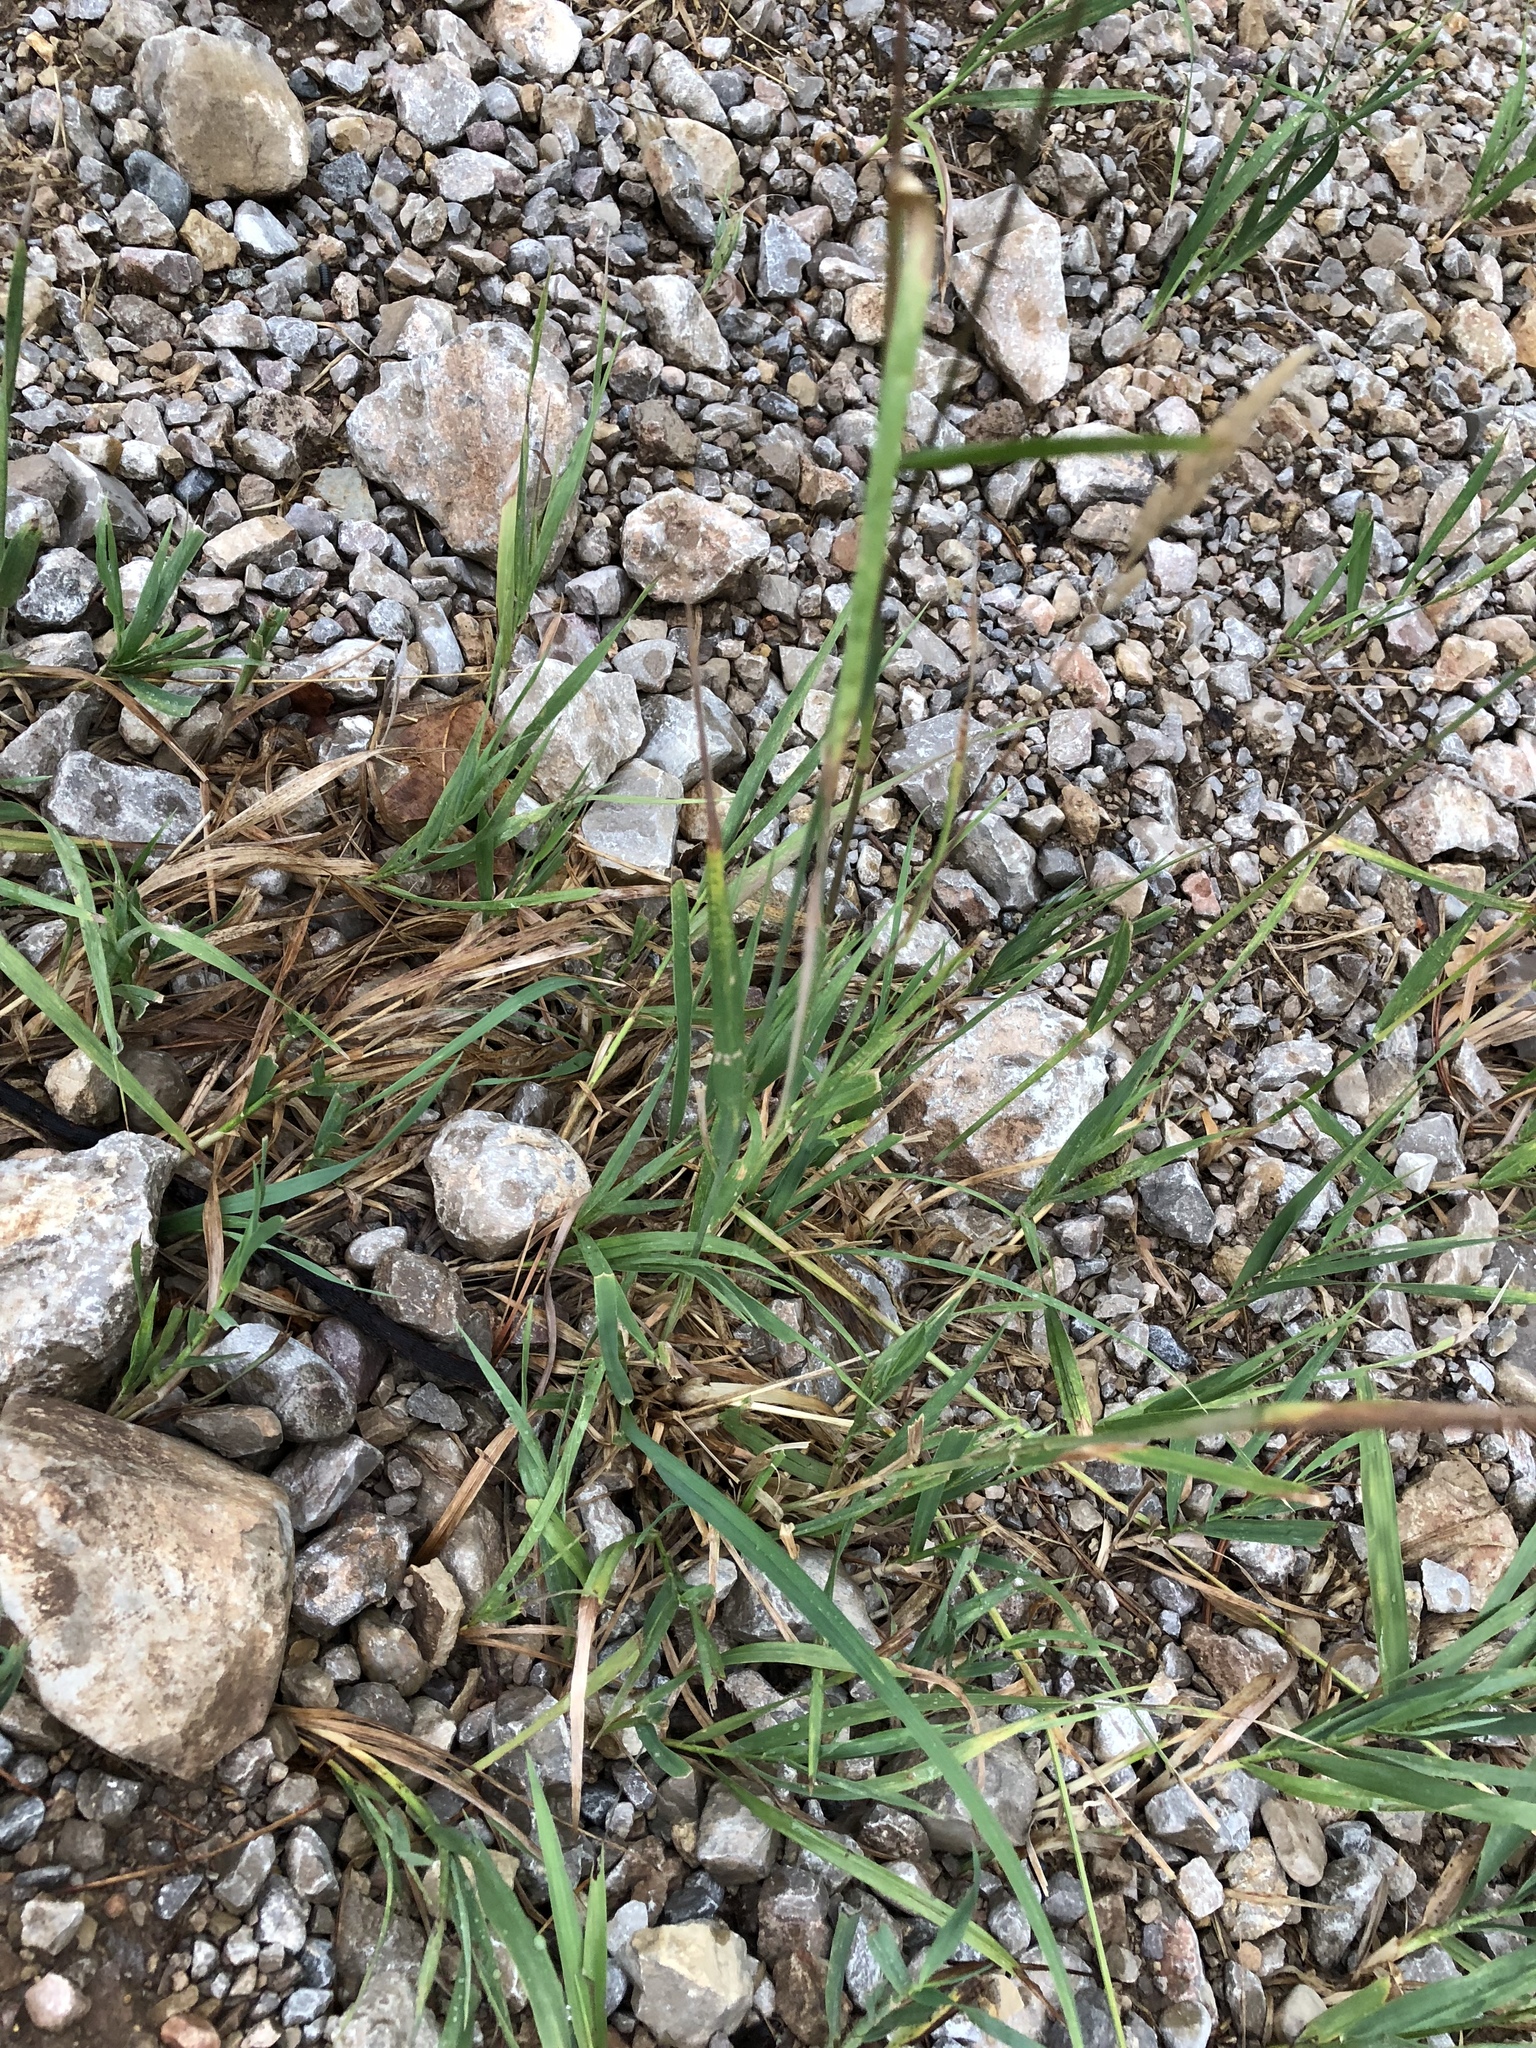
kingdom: Plantae
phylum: Tracheophyta
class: Liliopsida
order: Poales
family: Poaceae
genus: Dactylis
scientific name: Dactylis glomerata
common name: Orchardgrass
